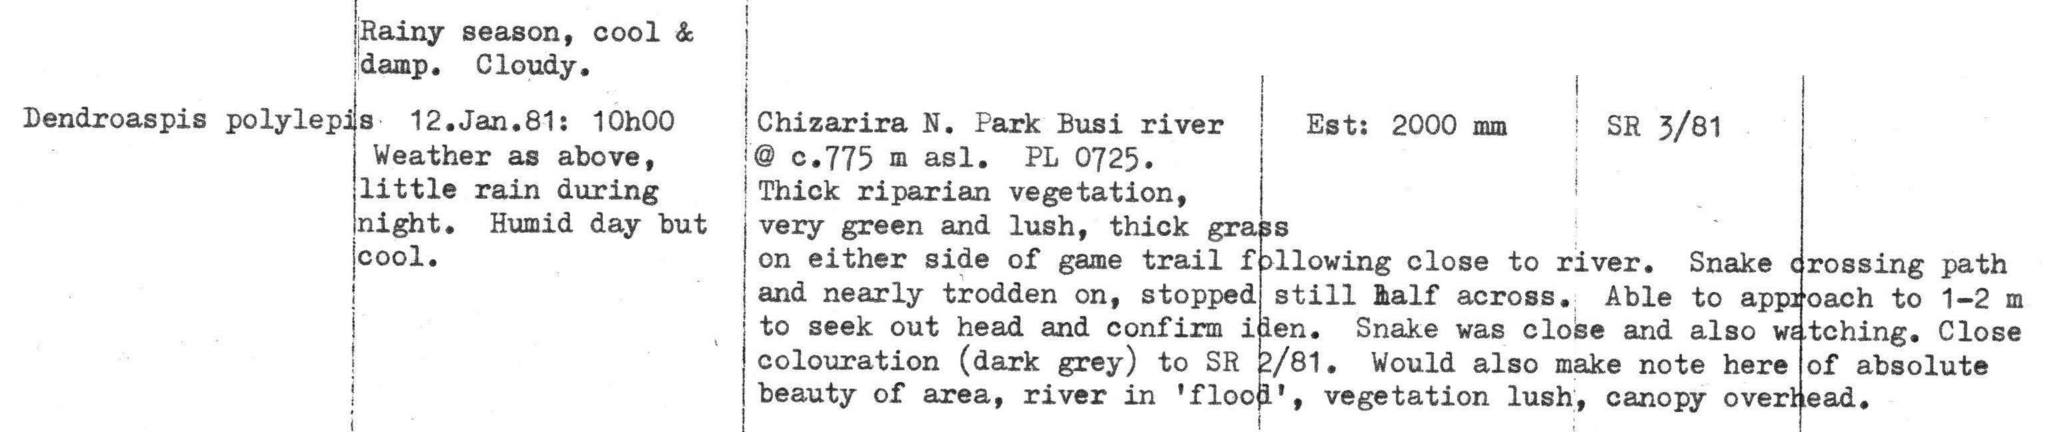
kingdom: Animalia
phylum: Chordata
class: Squamata
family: Elapidae
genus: Dendroaspis
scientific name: Dendroaspis polylepis
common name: Black mamba
